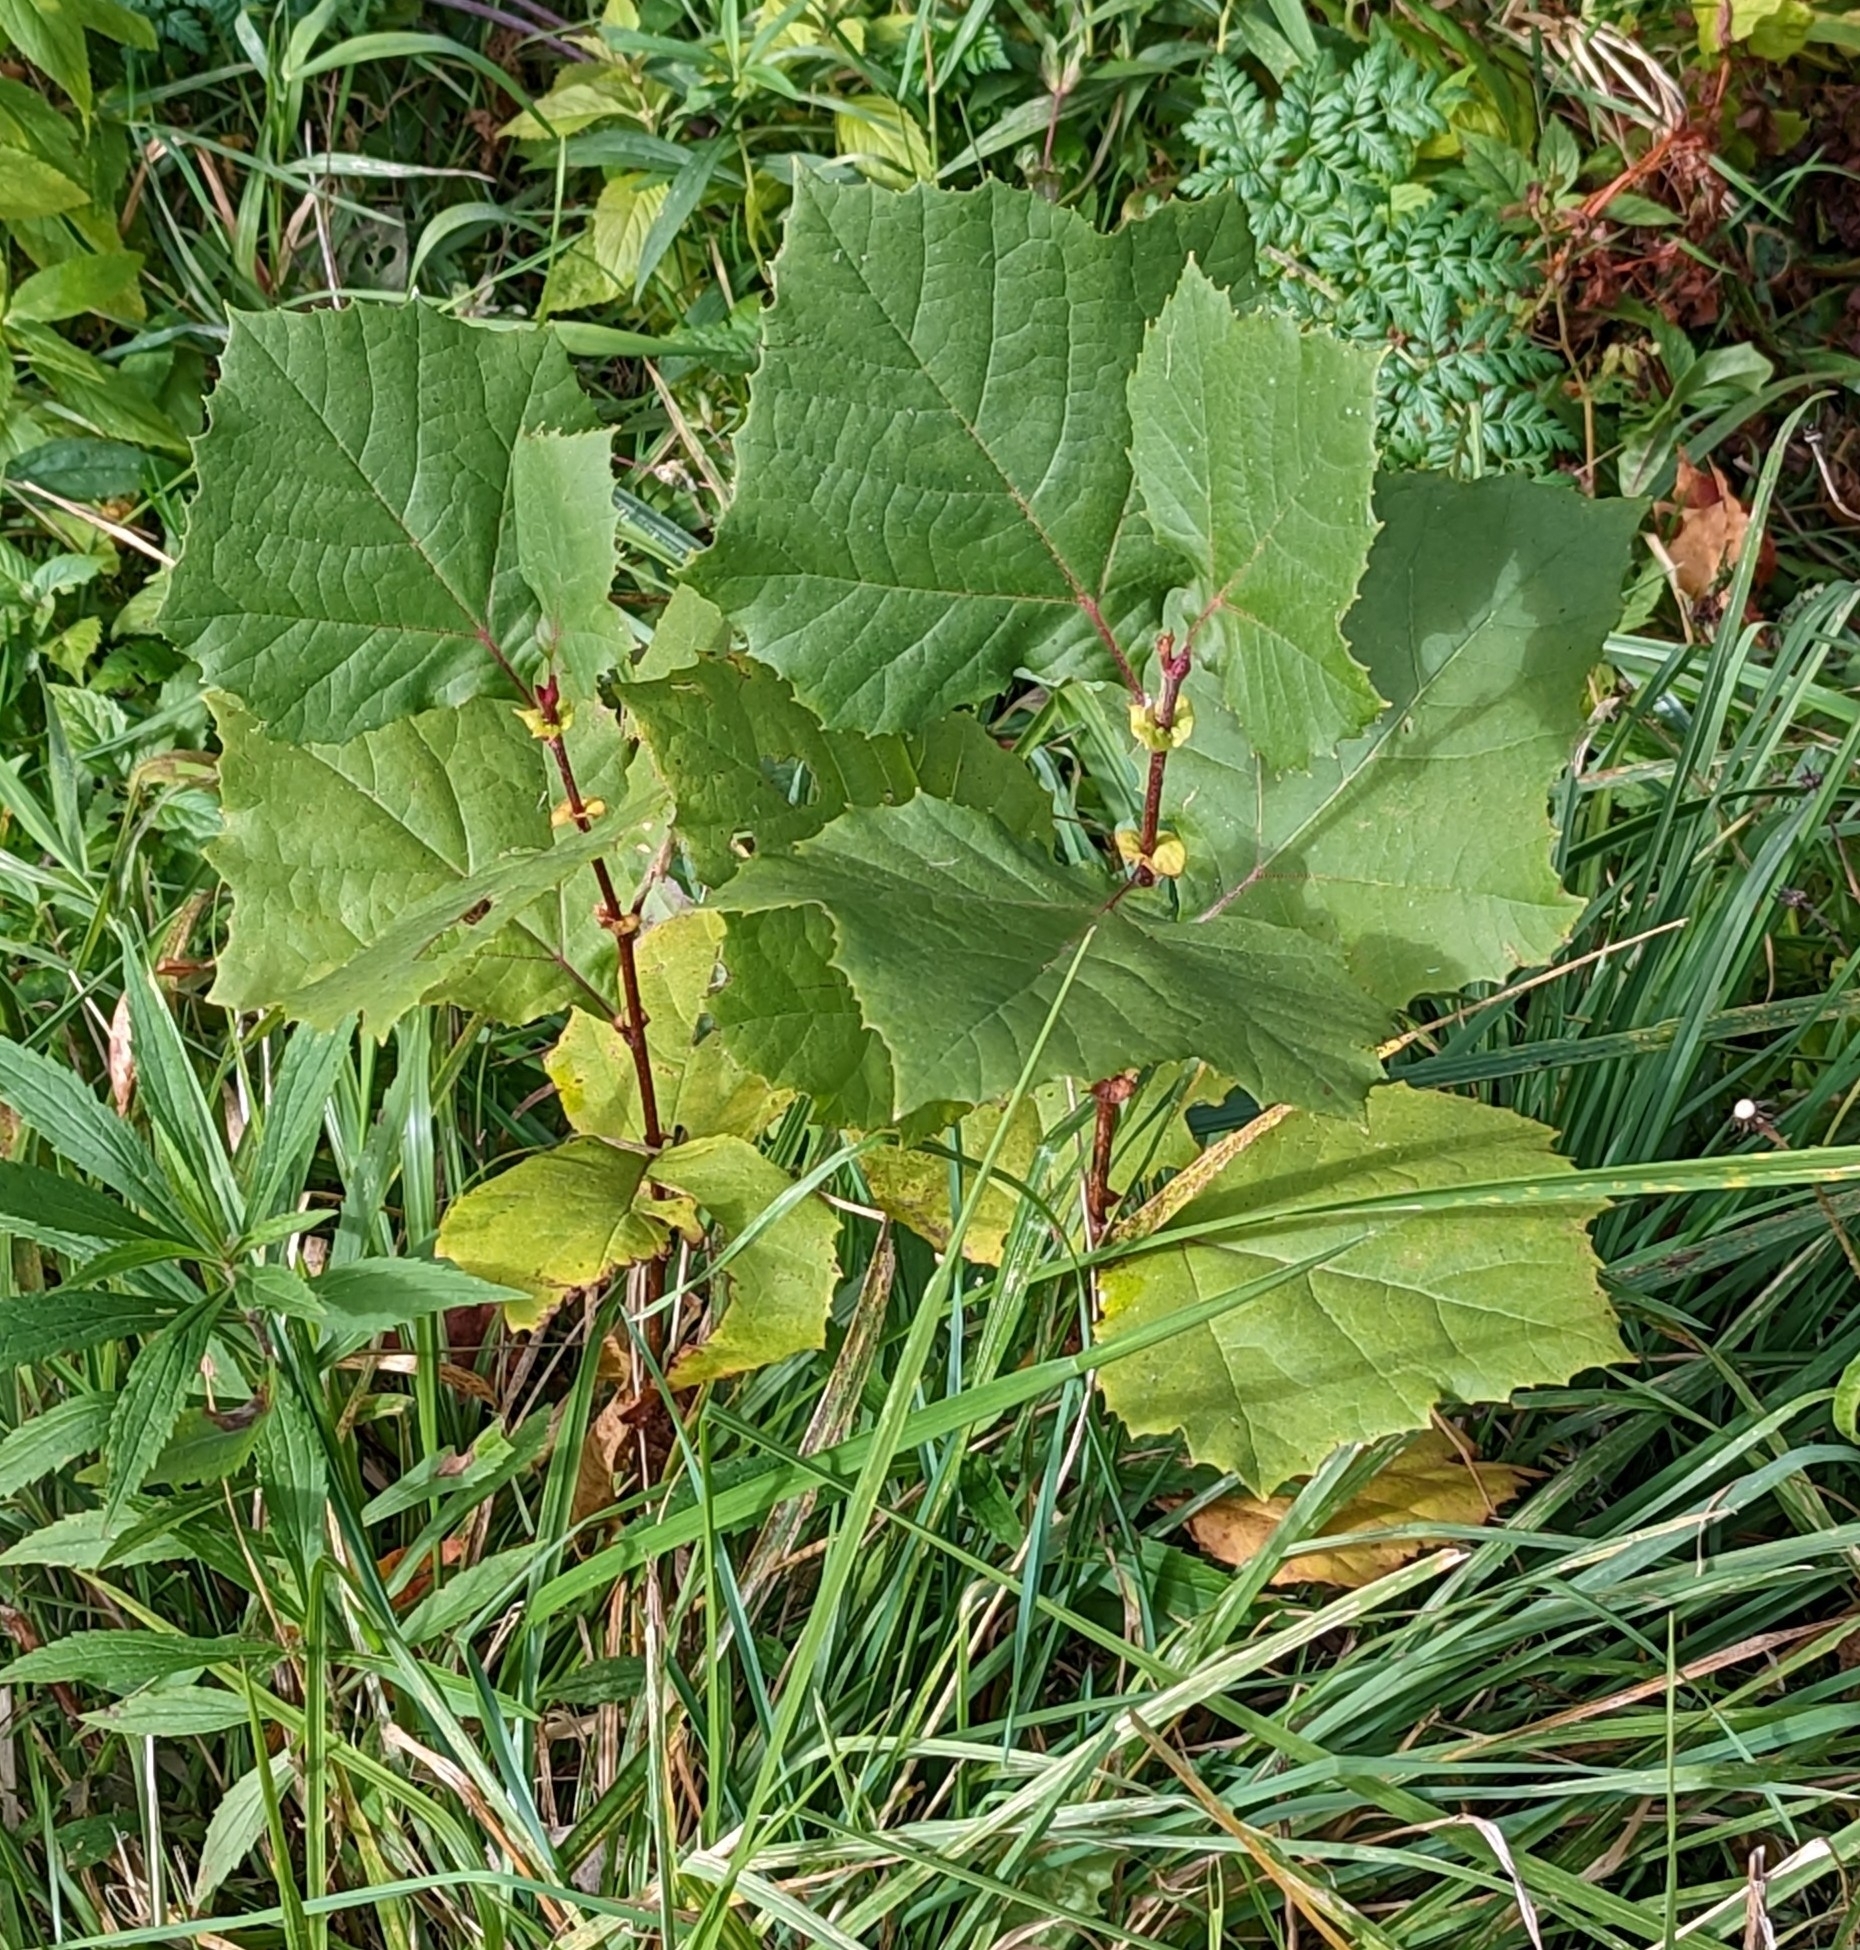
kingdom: Plantae
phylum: Tracheophyta
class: Magnoliopsida
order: Proteales
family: Platanaceae
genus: Platanus
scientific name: Platanus occidentalis
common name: American sycamore
